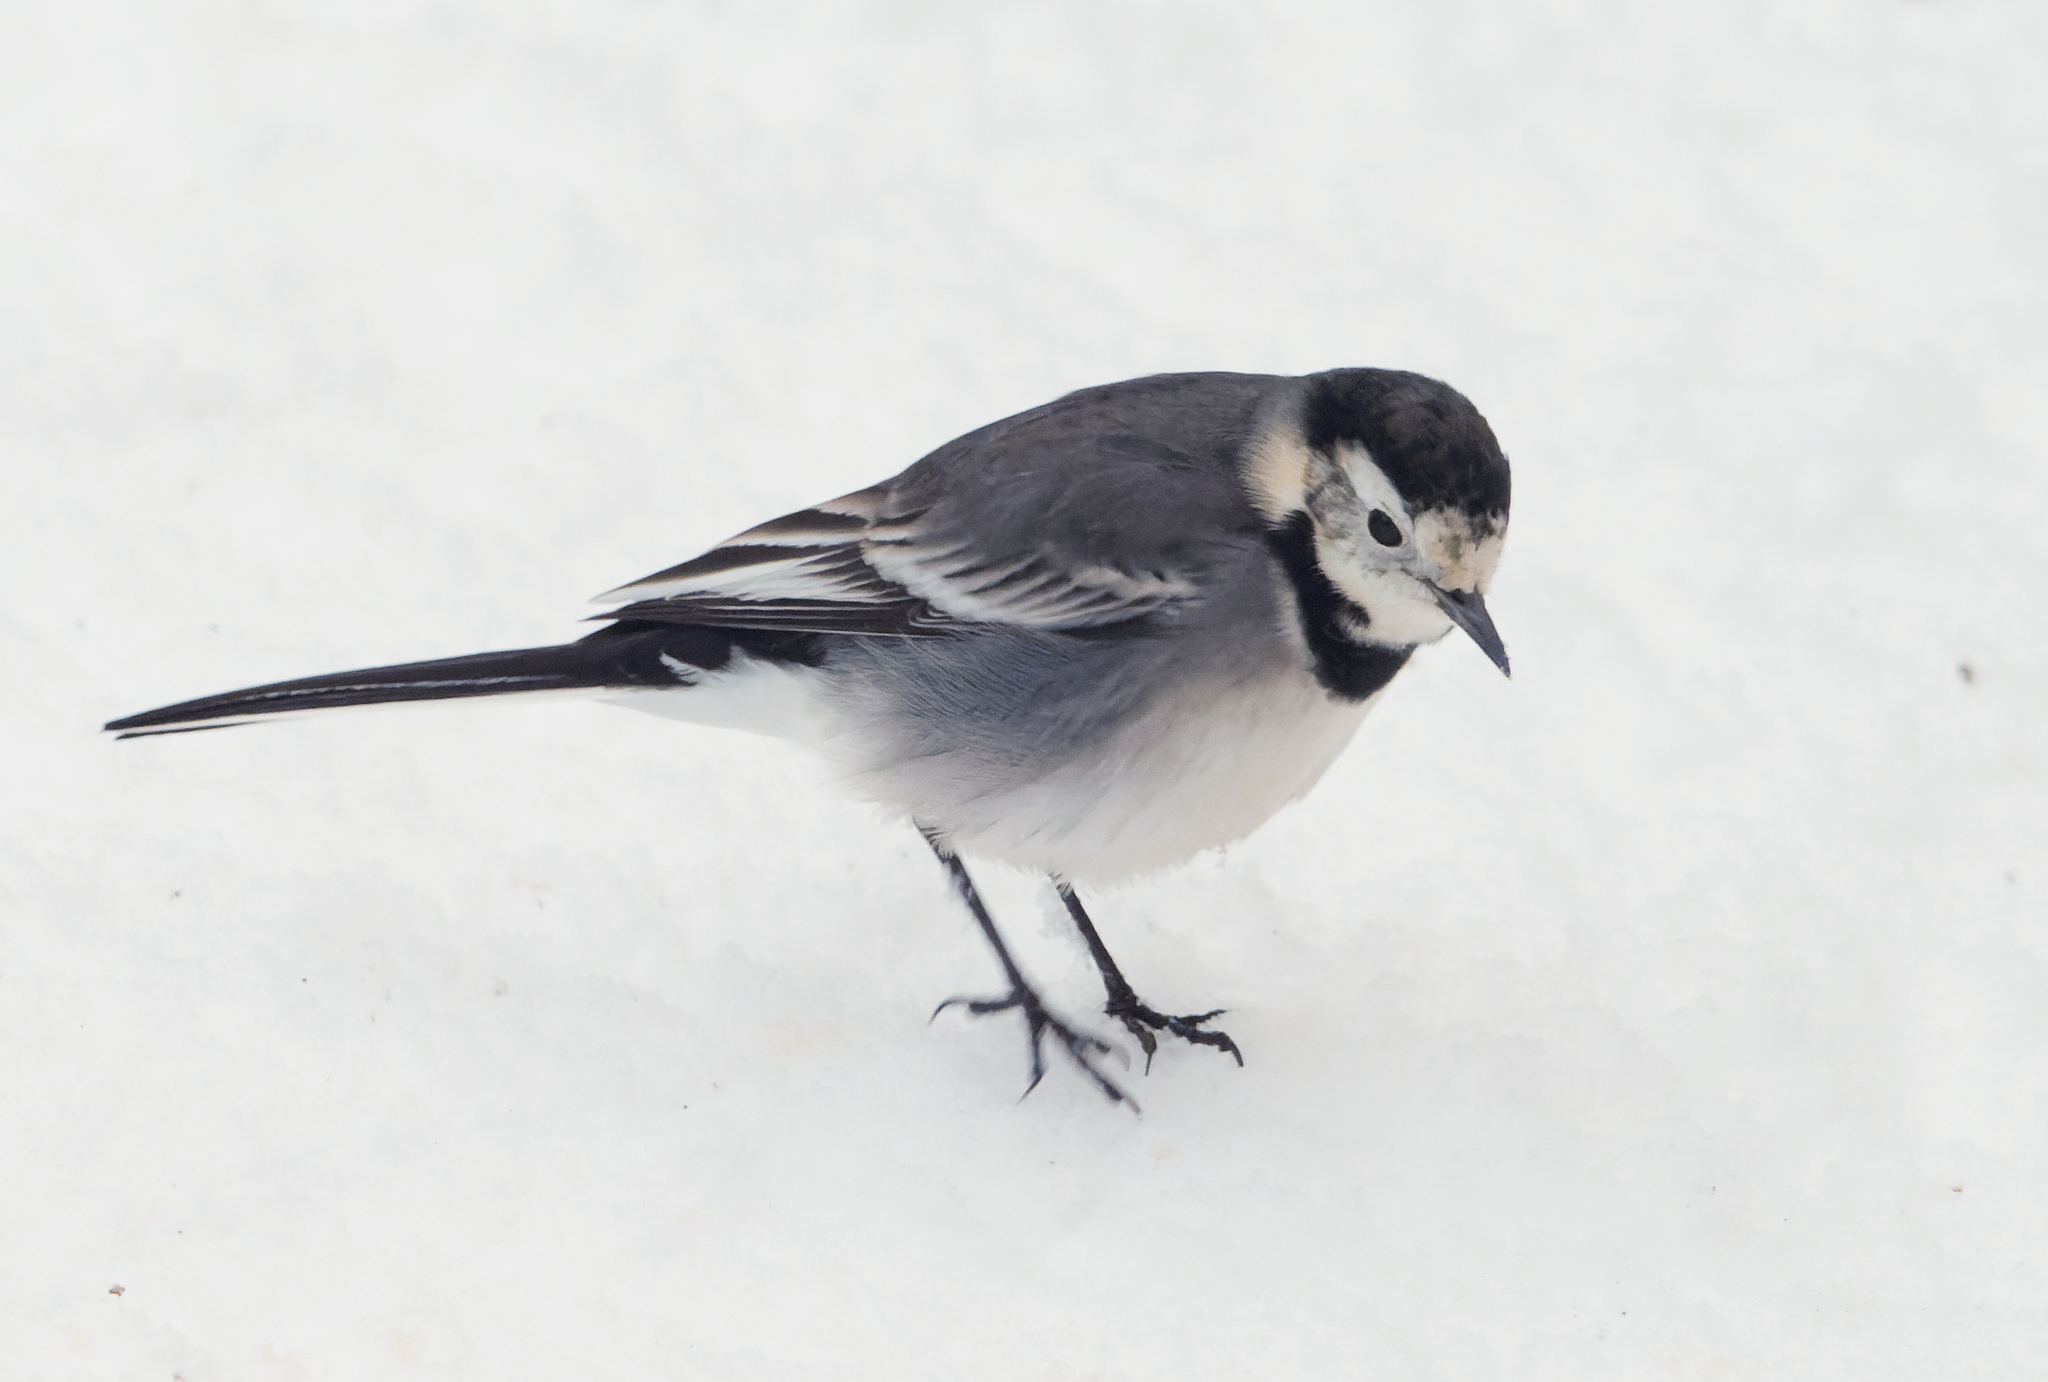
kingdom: Animalia
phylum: Chordata
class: Aves
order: Passeriformes
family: Motacillidae
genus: Motacilla
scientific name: Motacilla alba
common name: White wagtail
